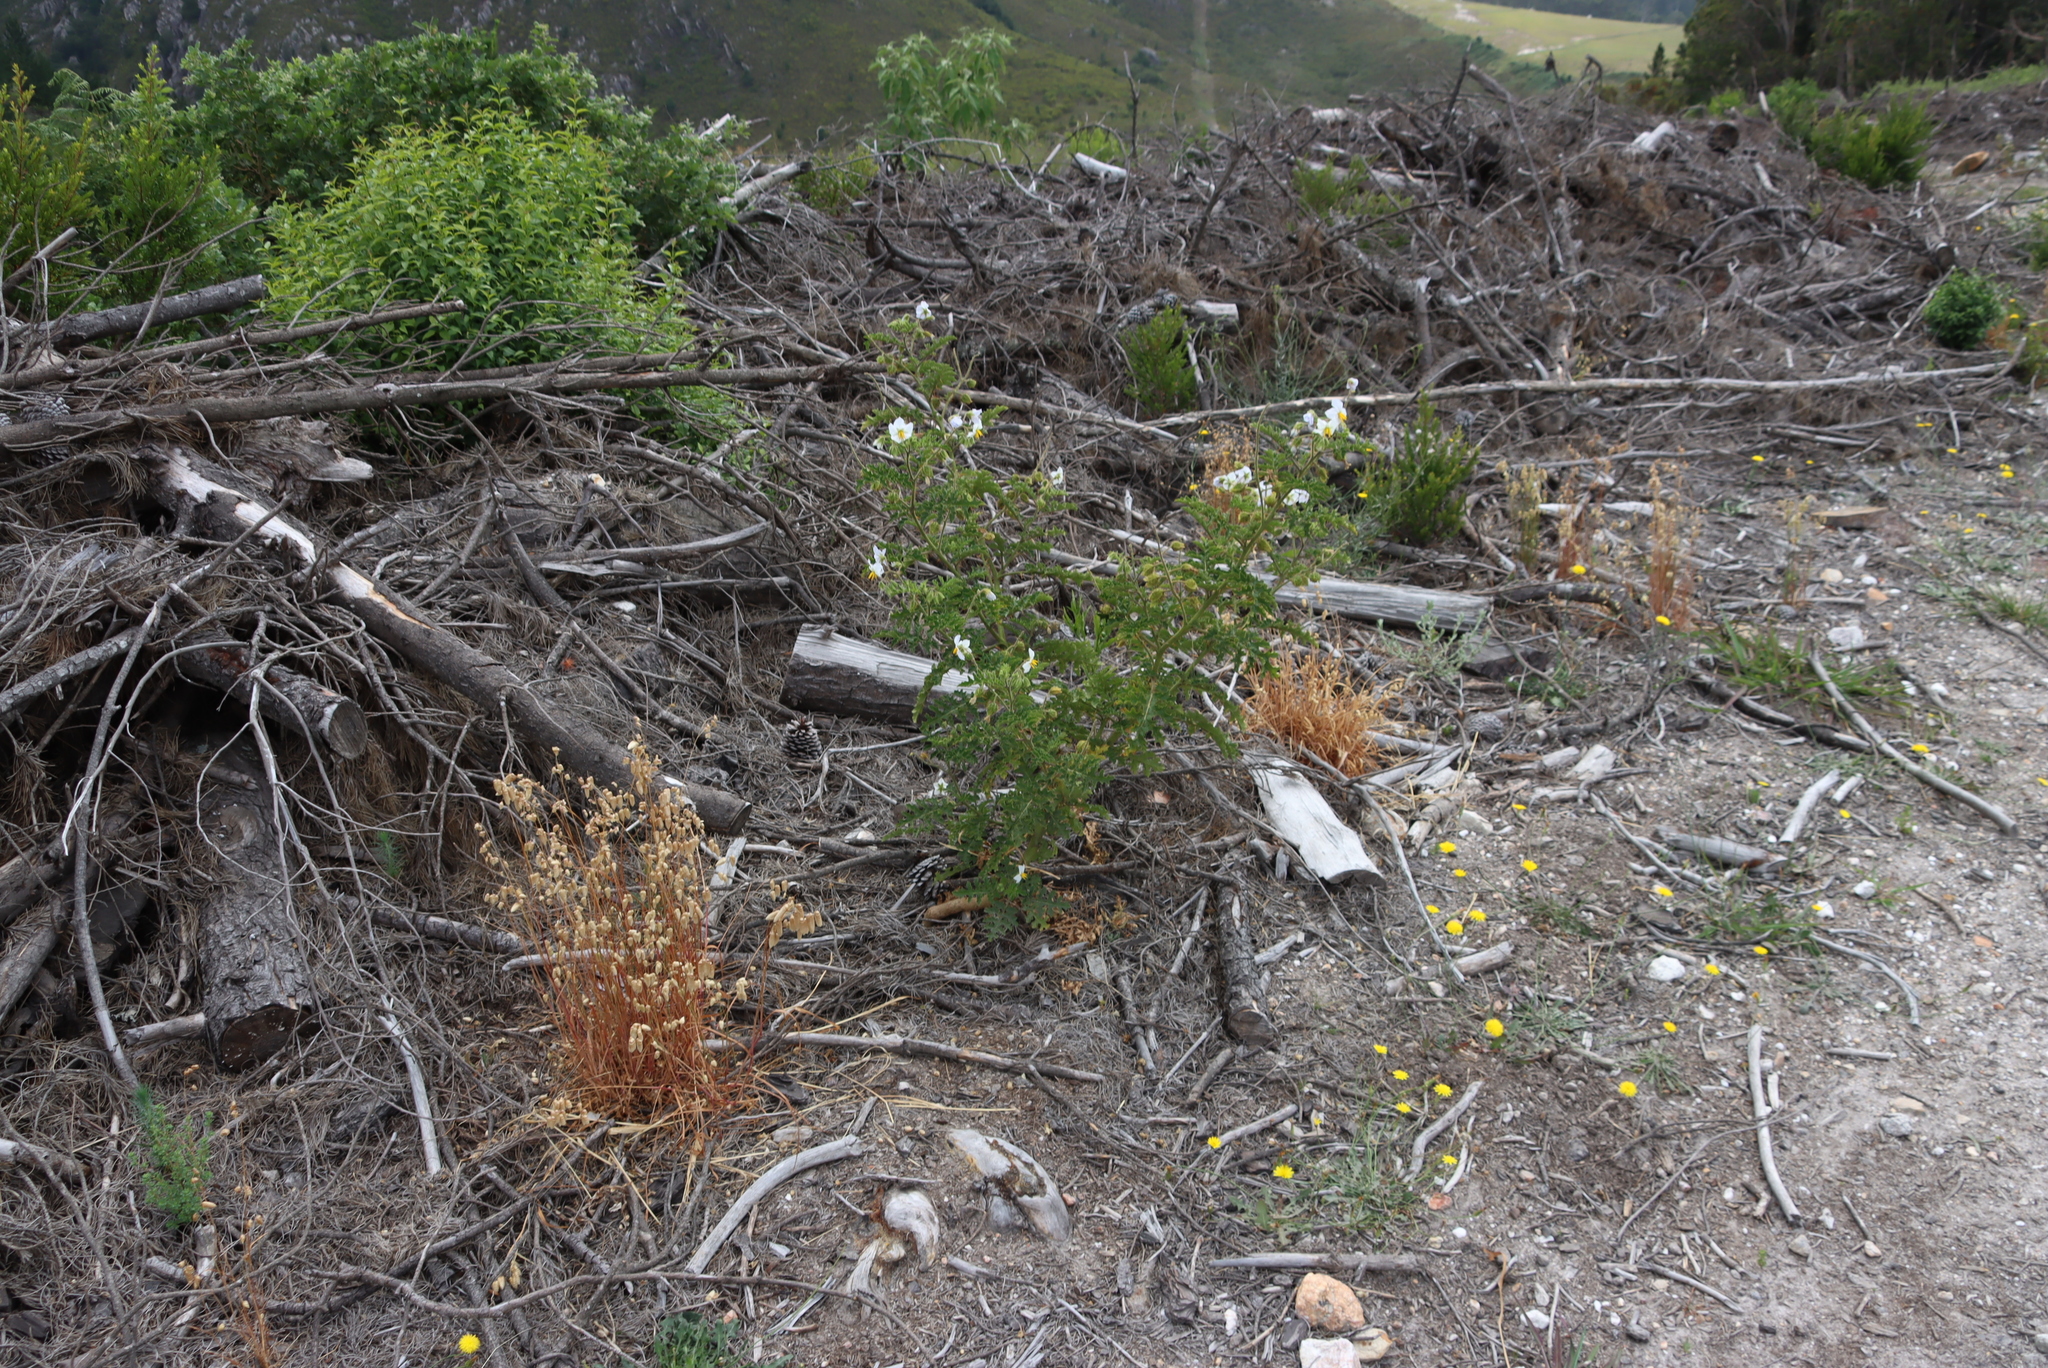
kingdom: Plantae
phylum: Tracheophyta
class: Magnoliopsida
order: Solanales
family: Solanaceae
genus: Solanum
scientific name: Solanum sisymbriifolium
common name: Red buffalo-bur
